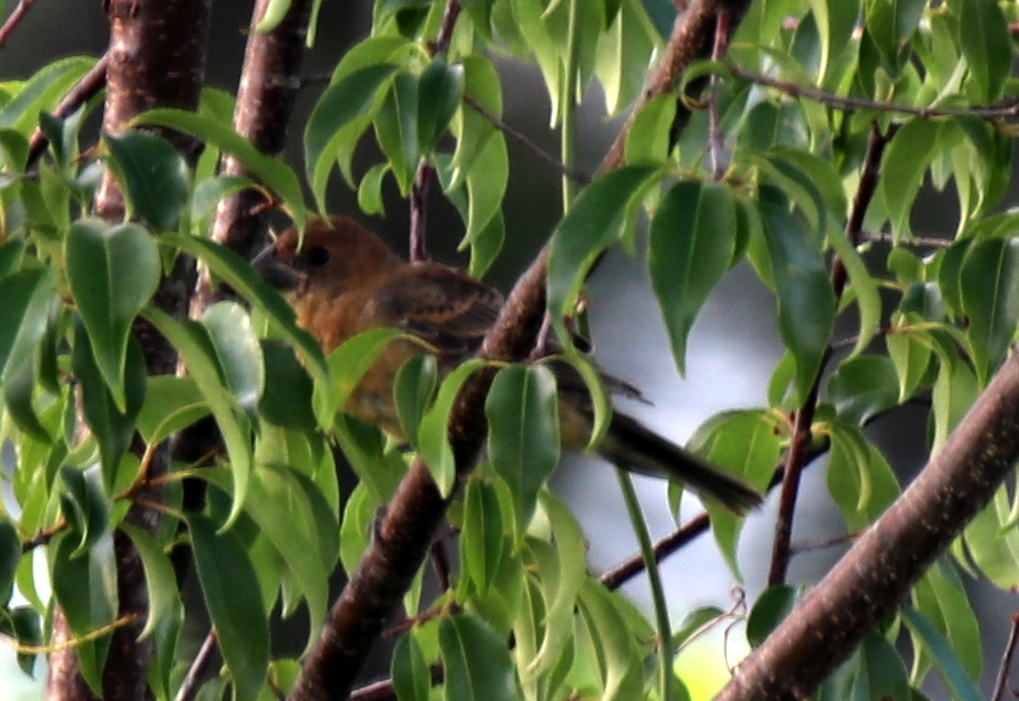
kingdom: Animalia
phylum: Chordata
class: Aves
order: Passeriformes
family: Cardinalidae
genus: Passerina
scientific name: Passerina caerulea
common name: Blue grosbeak
